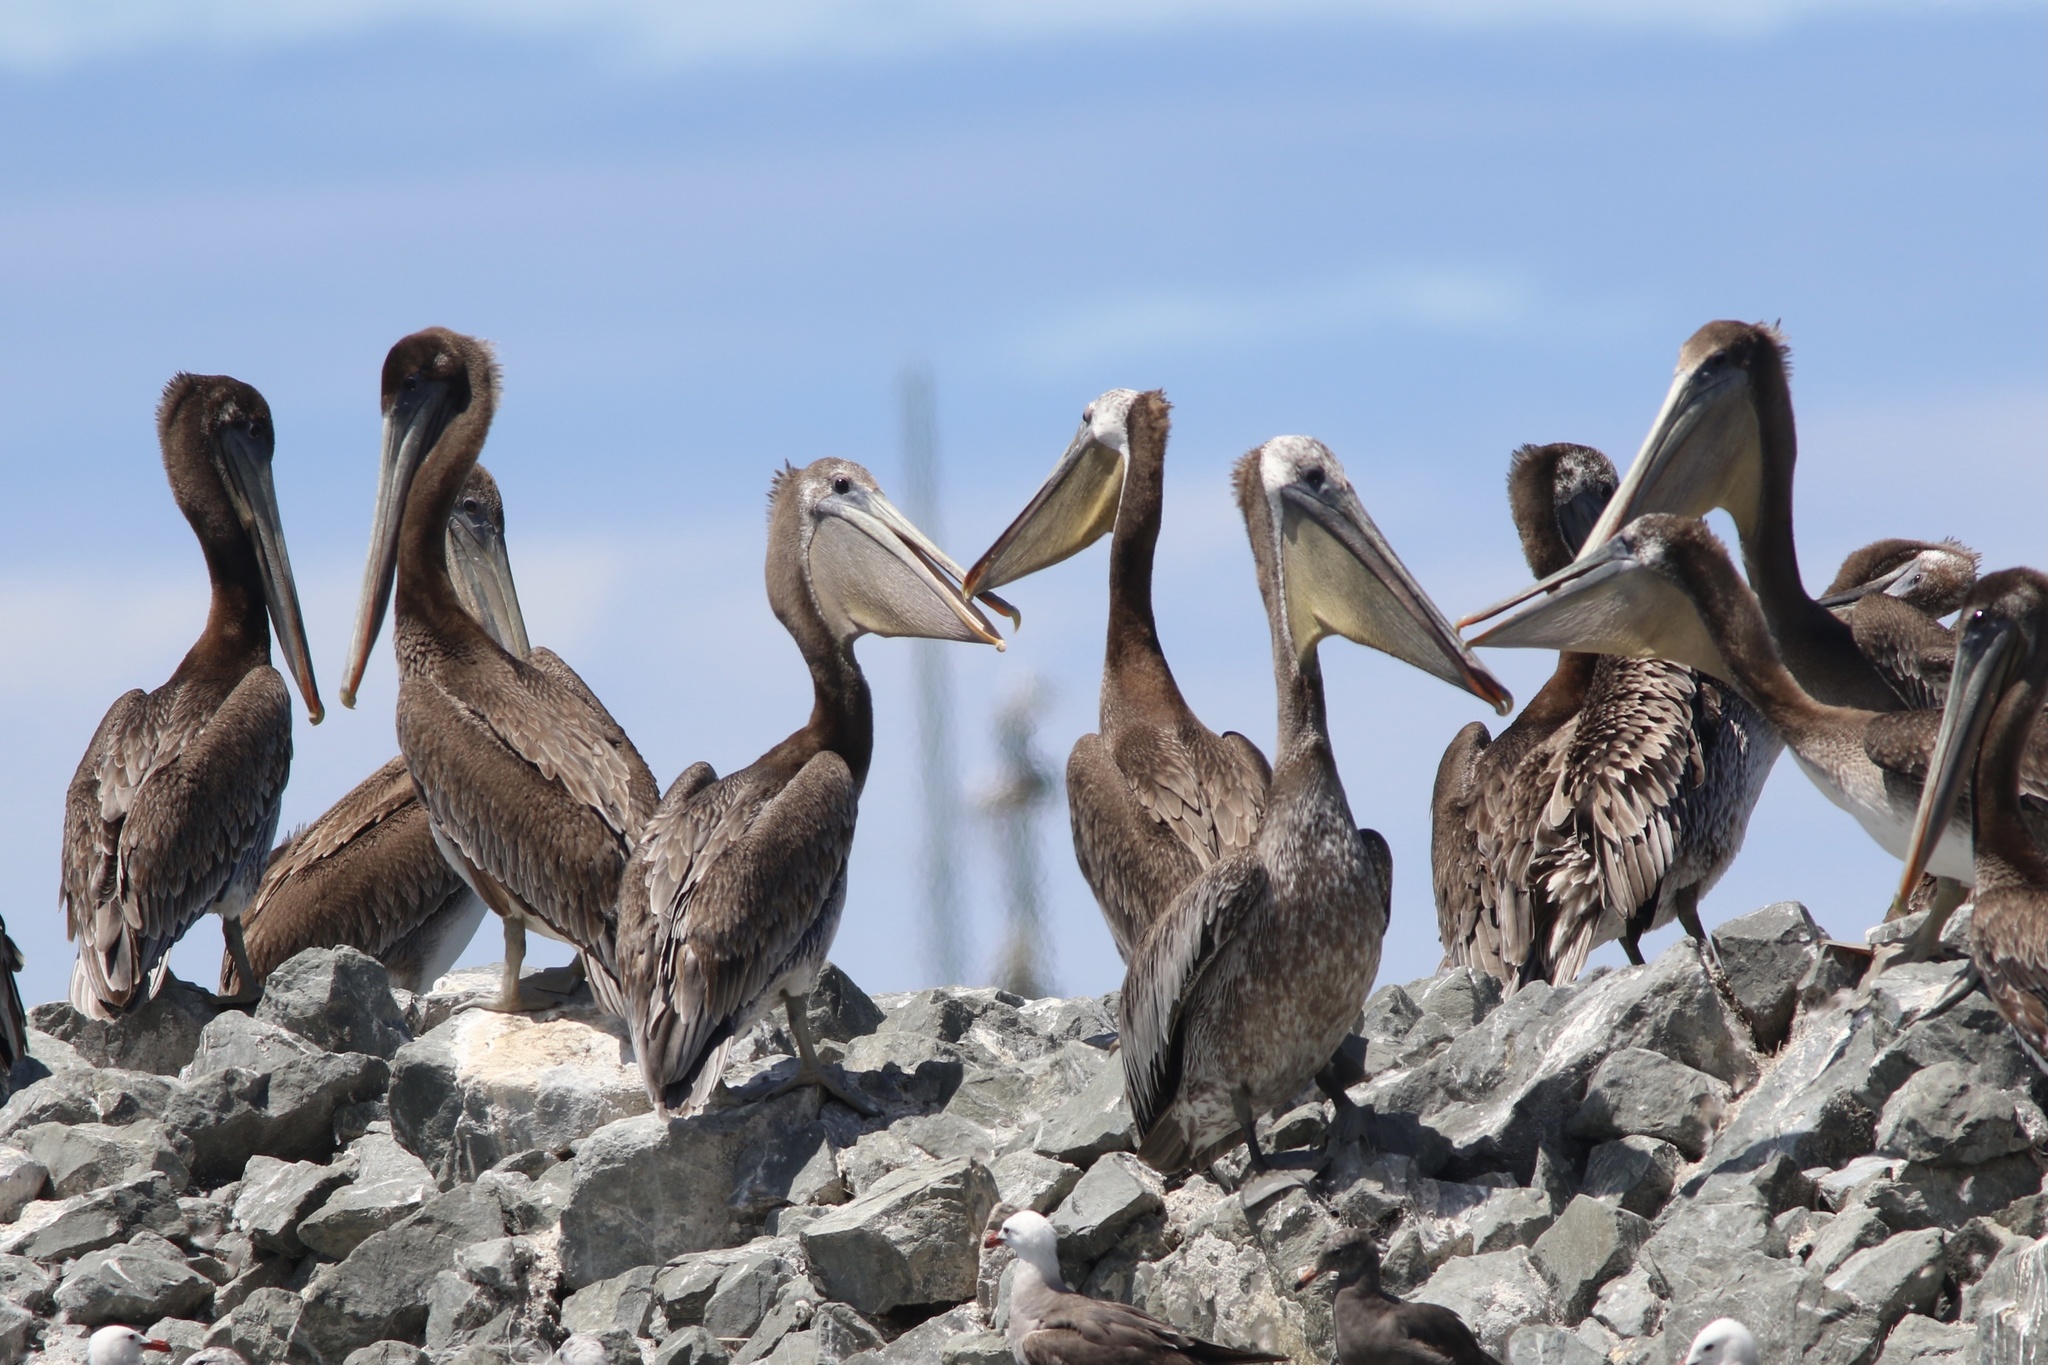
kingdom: Animalia
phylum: Chordata
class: Aves
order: Pelecaniformes
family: Pelecanidae
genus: Pelecanus
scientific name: Pelecanus occidentalis
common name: Brown pelican
